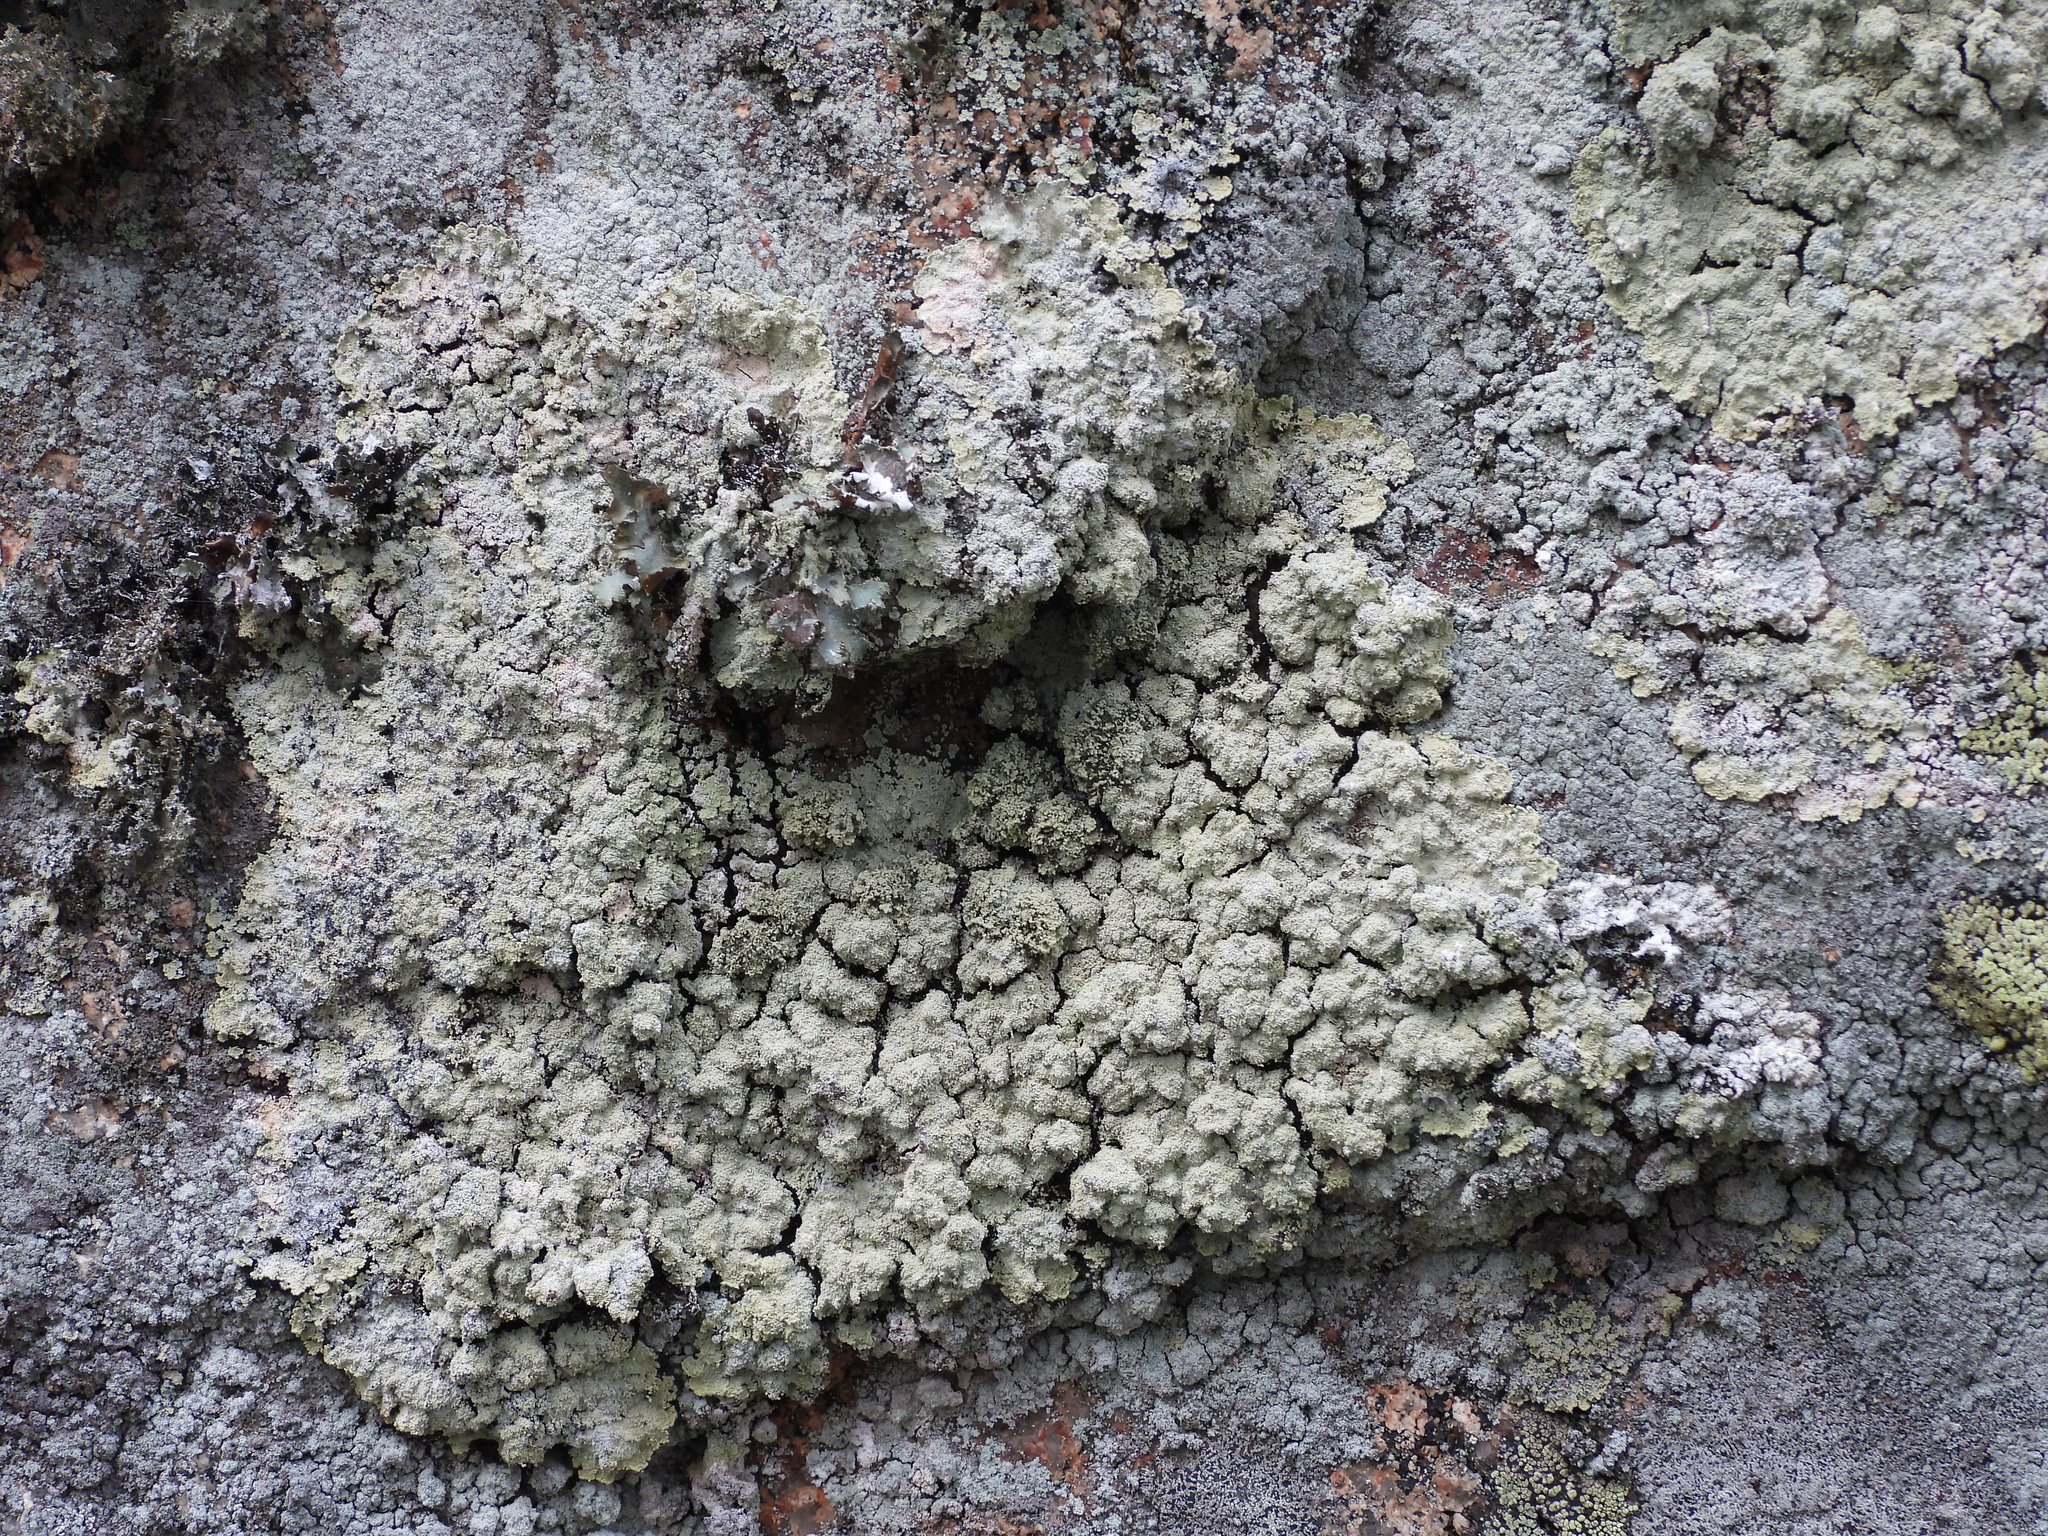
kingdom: Fungi
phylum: Ascomycota
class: Lecanoromycetes
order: Lecanorales
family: Stereocaulaceae
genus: Lepraria
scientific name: Lepraria membranacea
